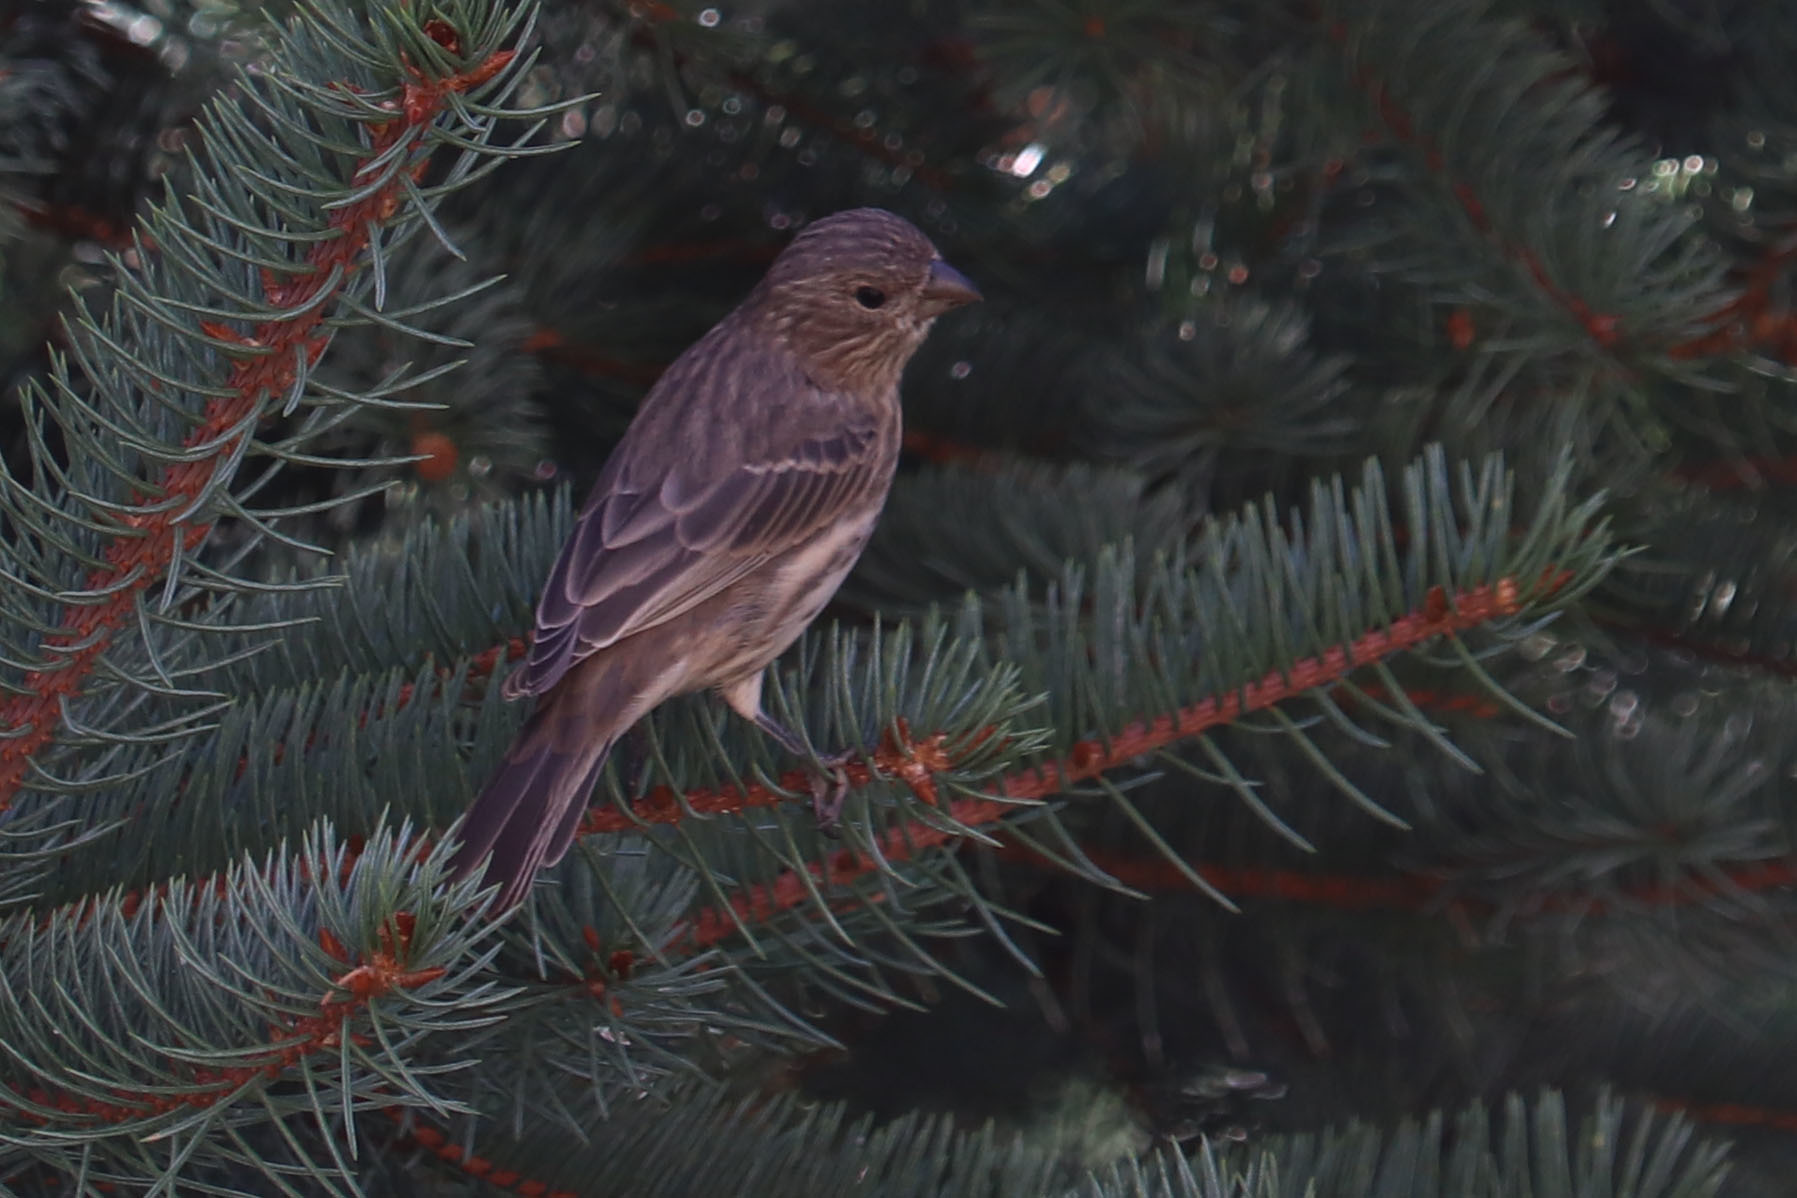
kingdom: Animalia
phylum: Chordata
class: Aves
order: Passeriformes
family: Fringillidae
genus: Haemorhous
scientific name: Haemorhous mexicanus
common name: House finch
